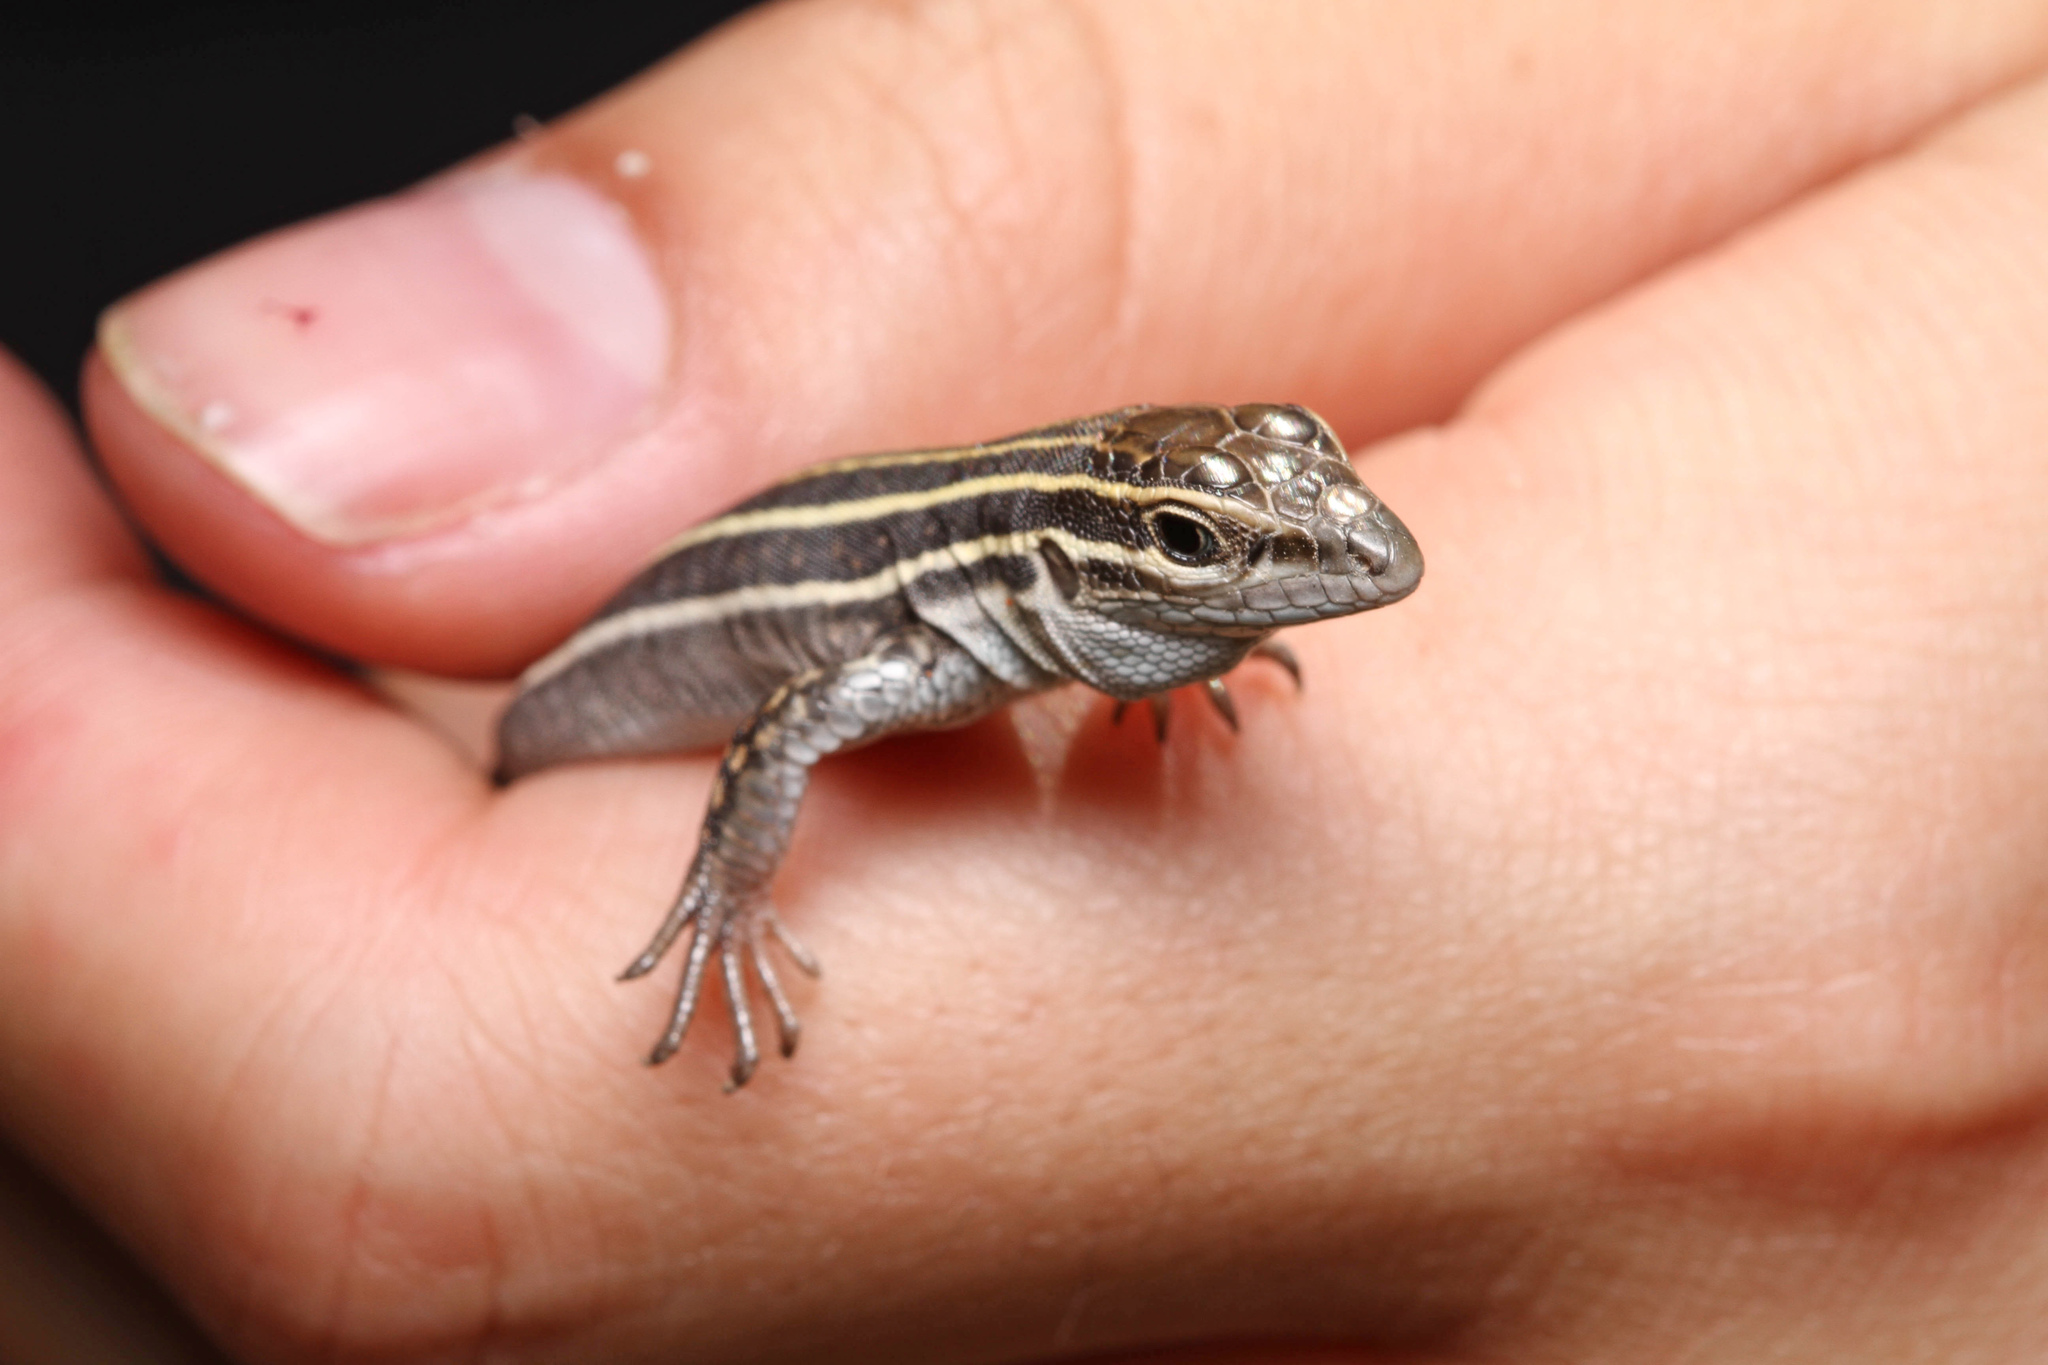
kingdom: Animalia
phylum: Chordata
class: Squamata
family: Teiidae
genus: Aspidoscelis
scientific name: Aspidoscelis exsanguis
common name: Chihuahuan spotted whiptail
